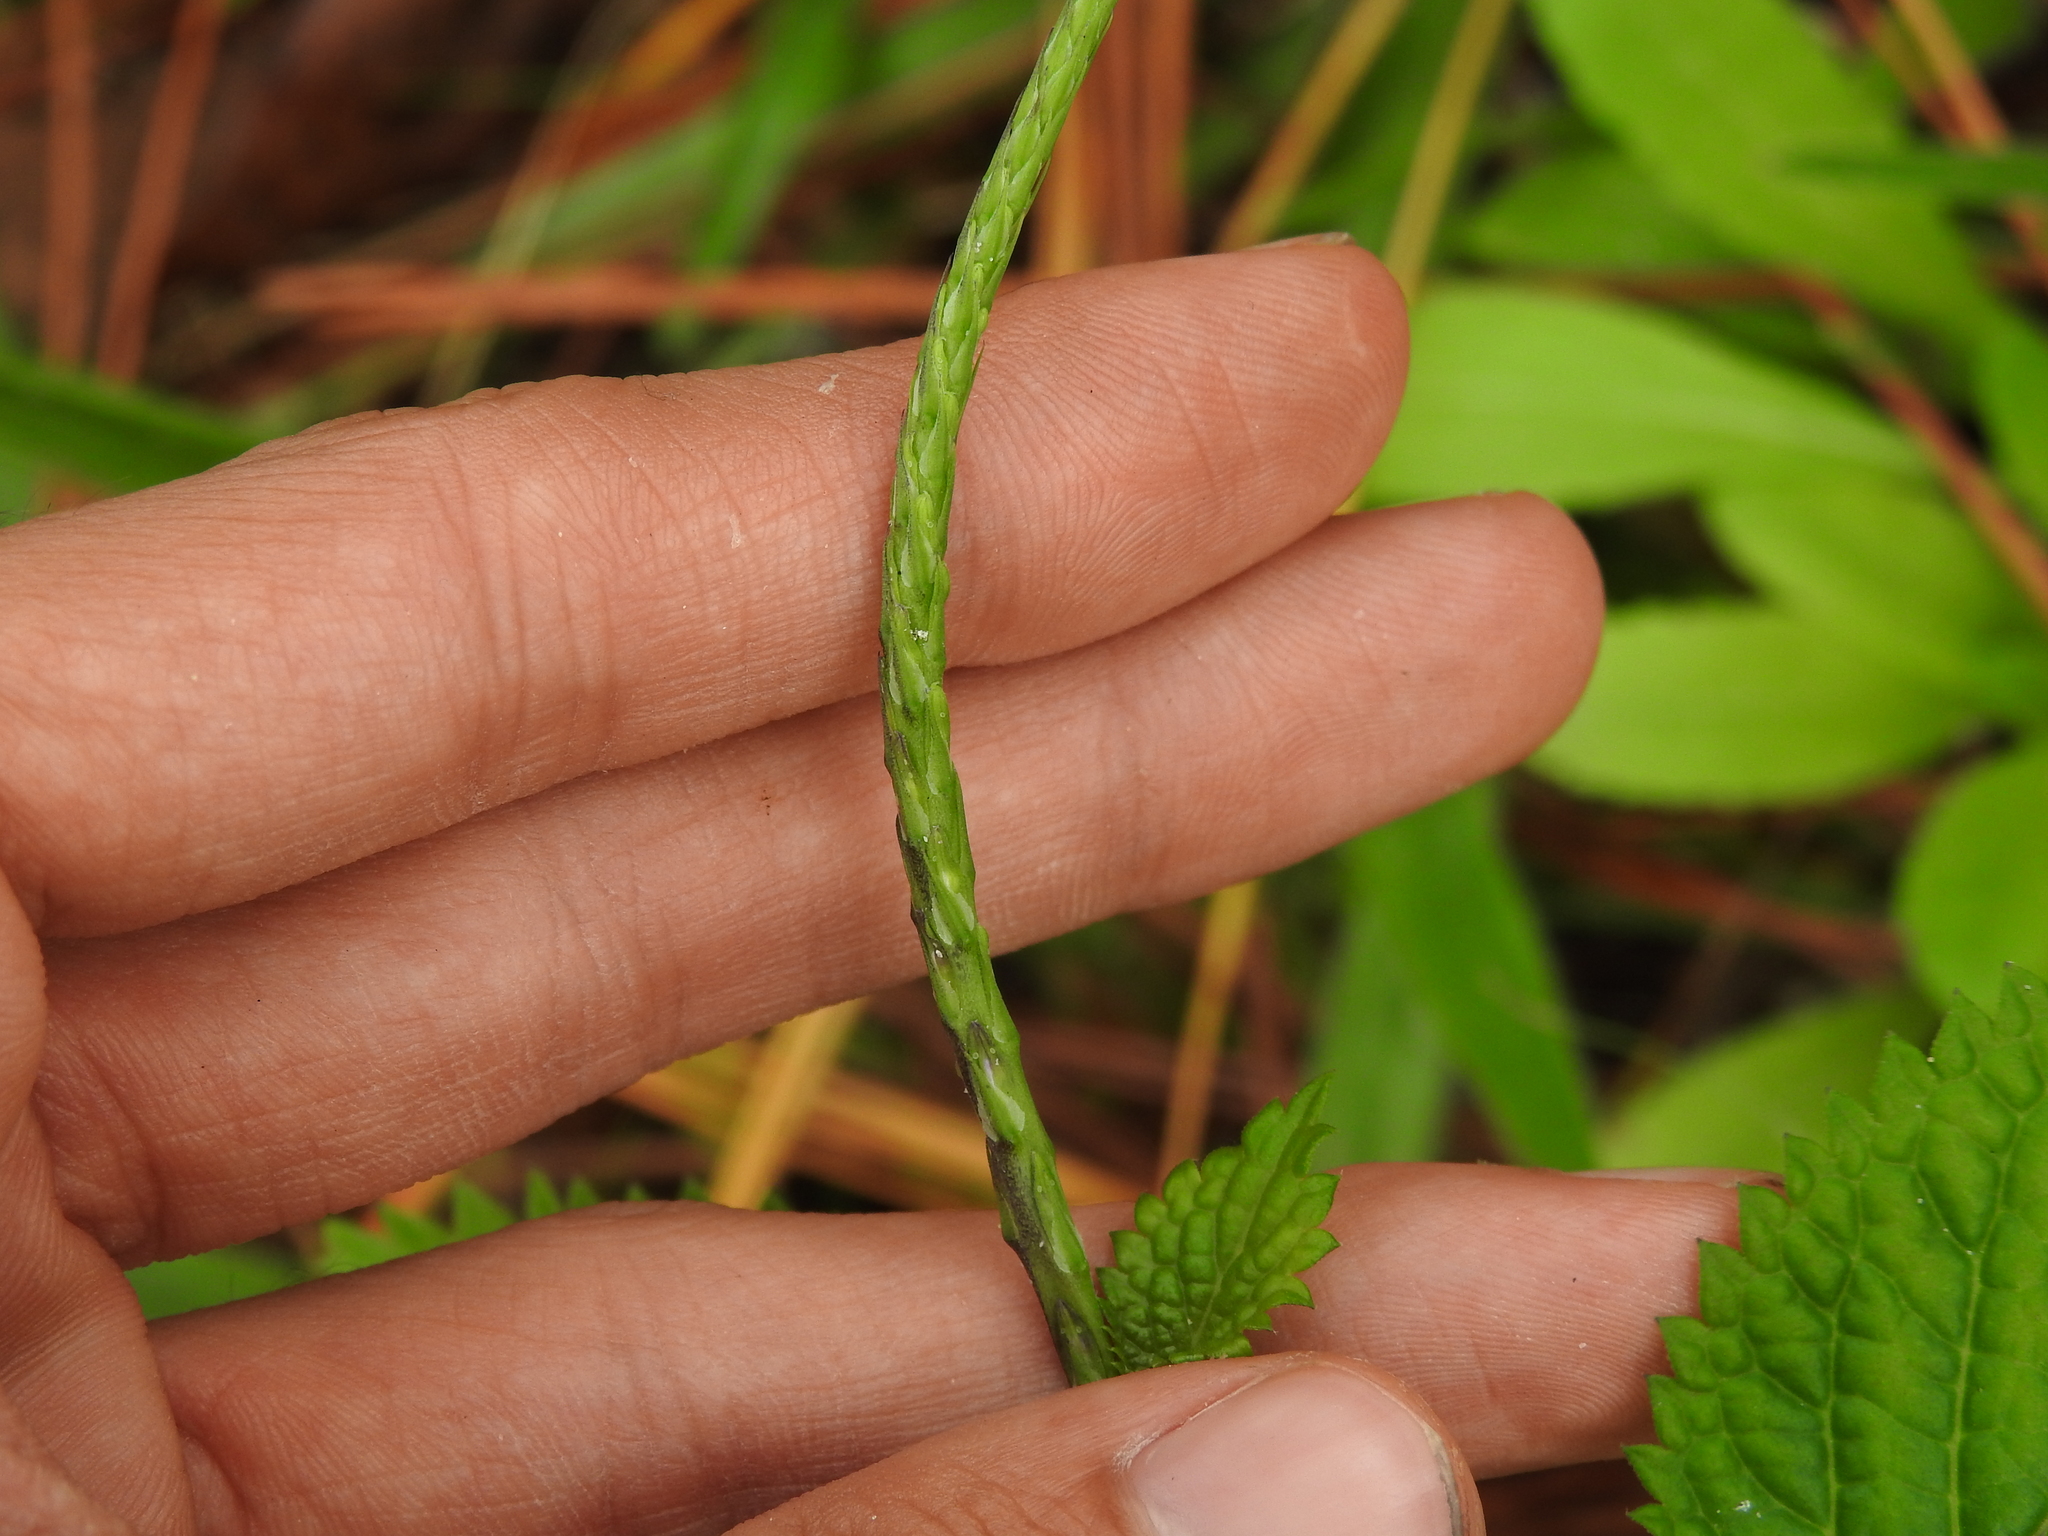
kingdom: Plantae
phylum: Tracheophyta
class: Magnoliopsida
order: Lamiales
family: Verbenaceae
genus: Stachytarpheta
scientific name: Stachytarpheta cayennensis
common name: Cayenne porterweed
